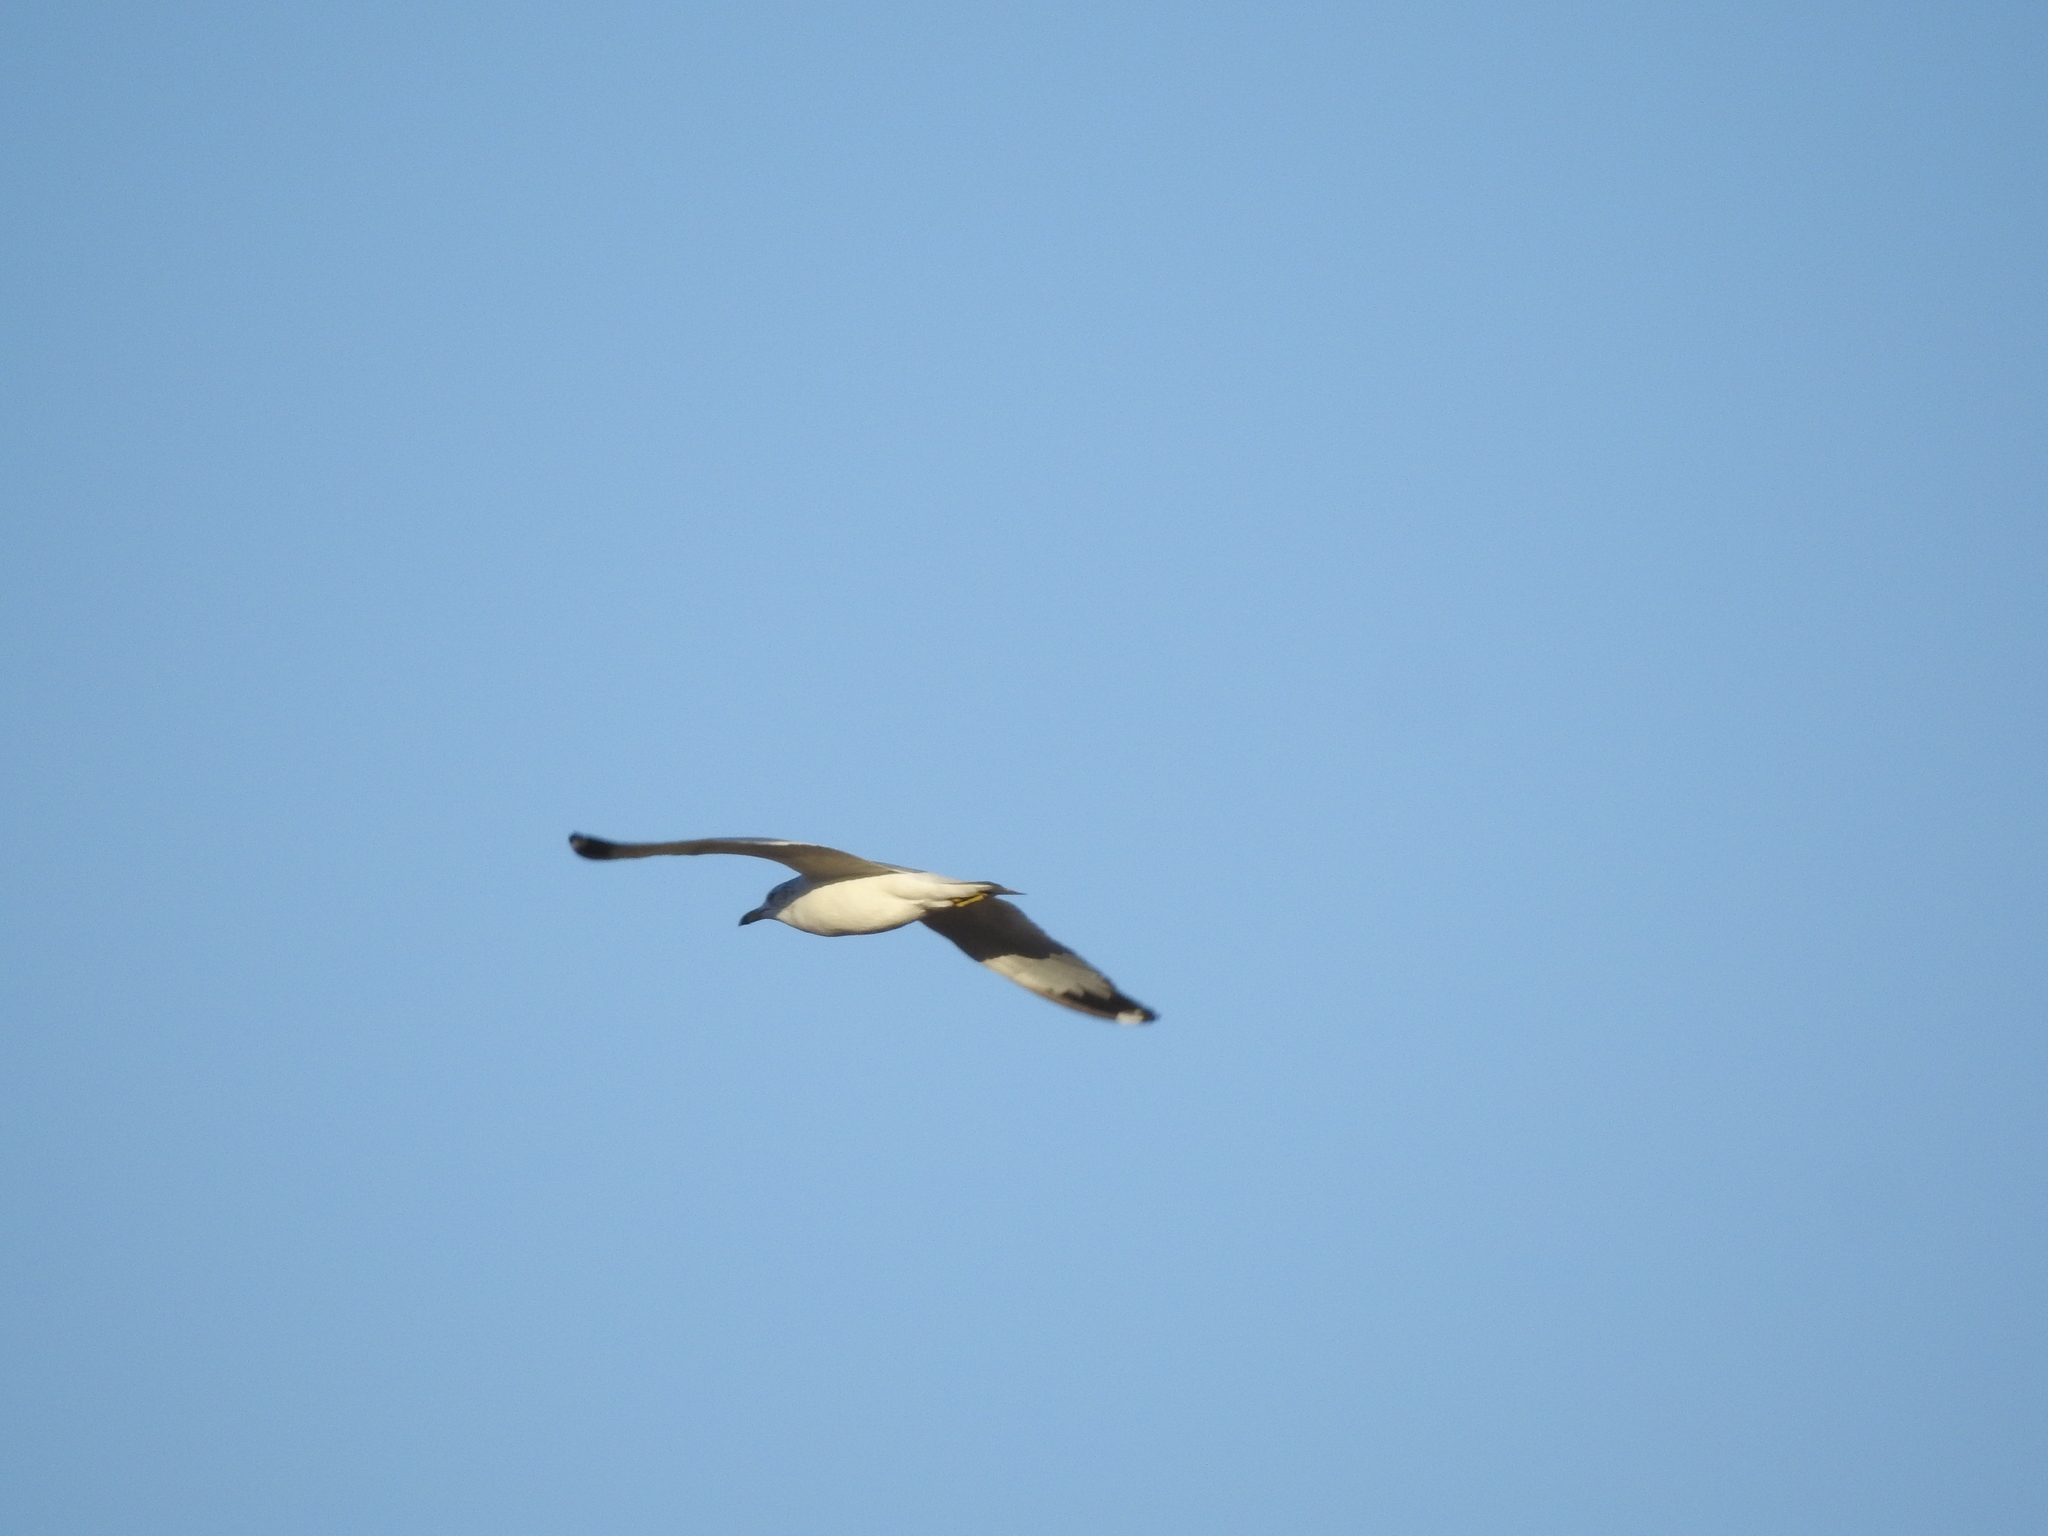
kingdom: Animalia
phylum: Chordata
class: Aves
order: Charadriiformes
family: Laridae
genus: Larus
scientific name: Larus delawarensis
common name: Ring-billed gull
